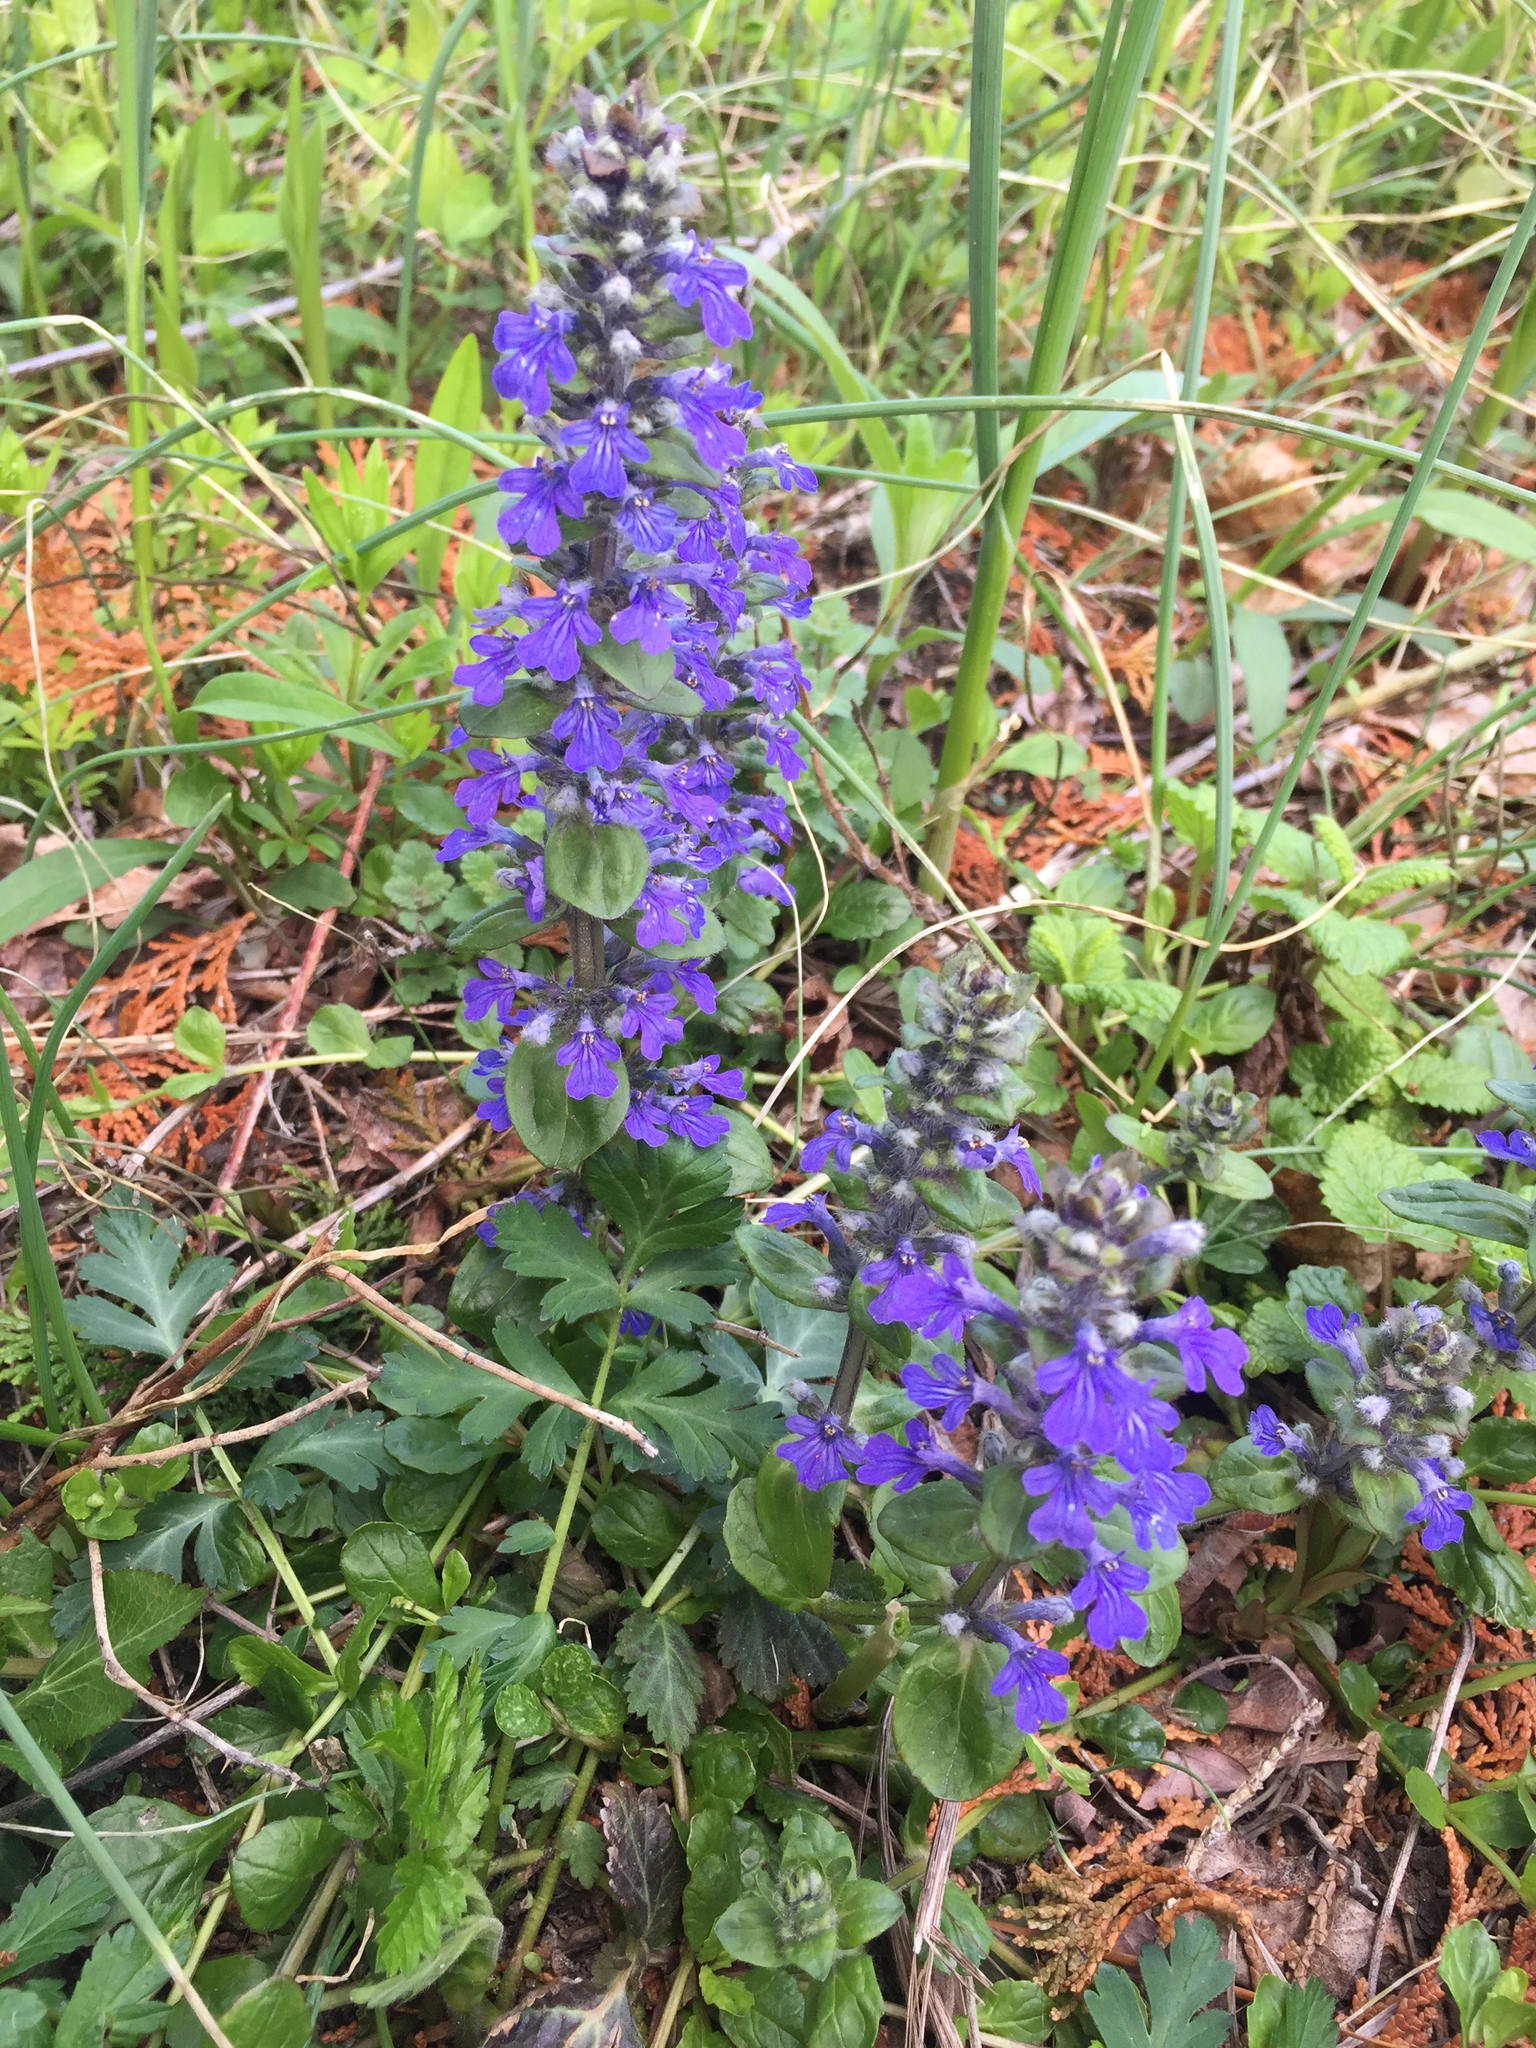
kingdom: Plantae
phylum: Tracheophyta
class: Magnoliopsida
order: Lamiales
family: Lamiaceae
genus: Ajuga
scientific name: Ajuga reptans
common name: Bugle
